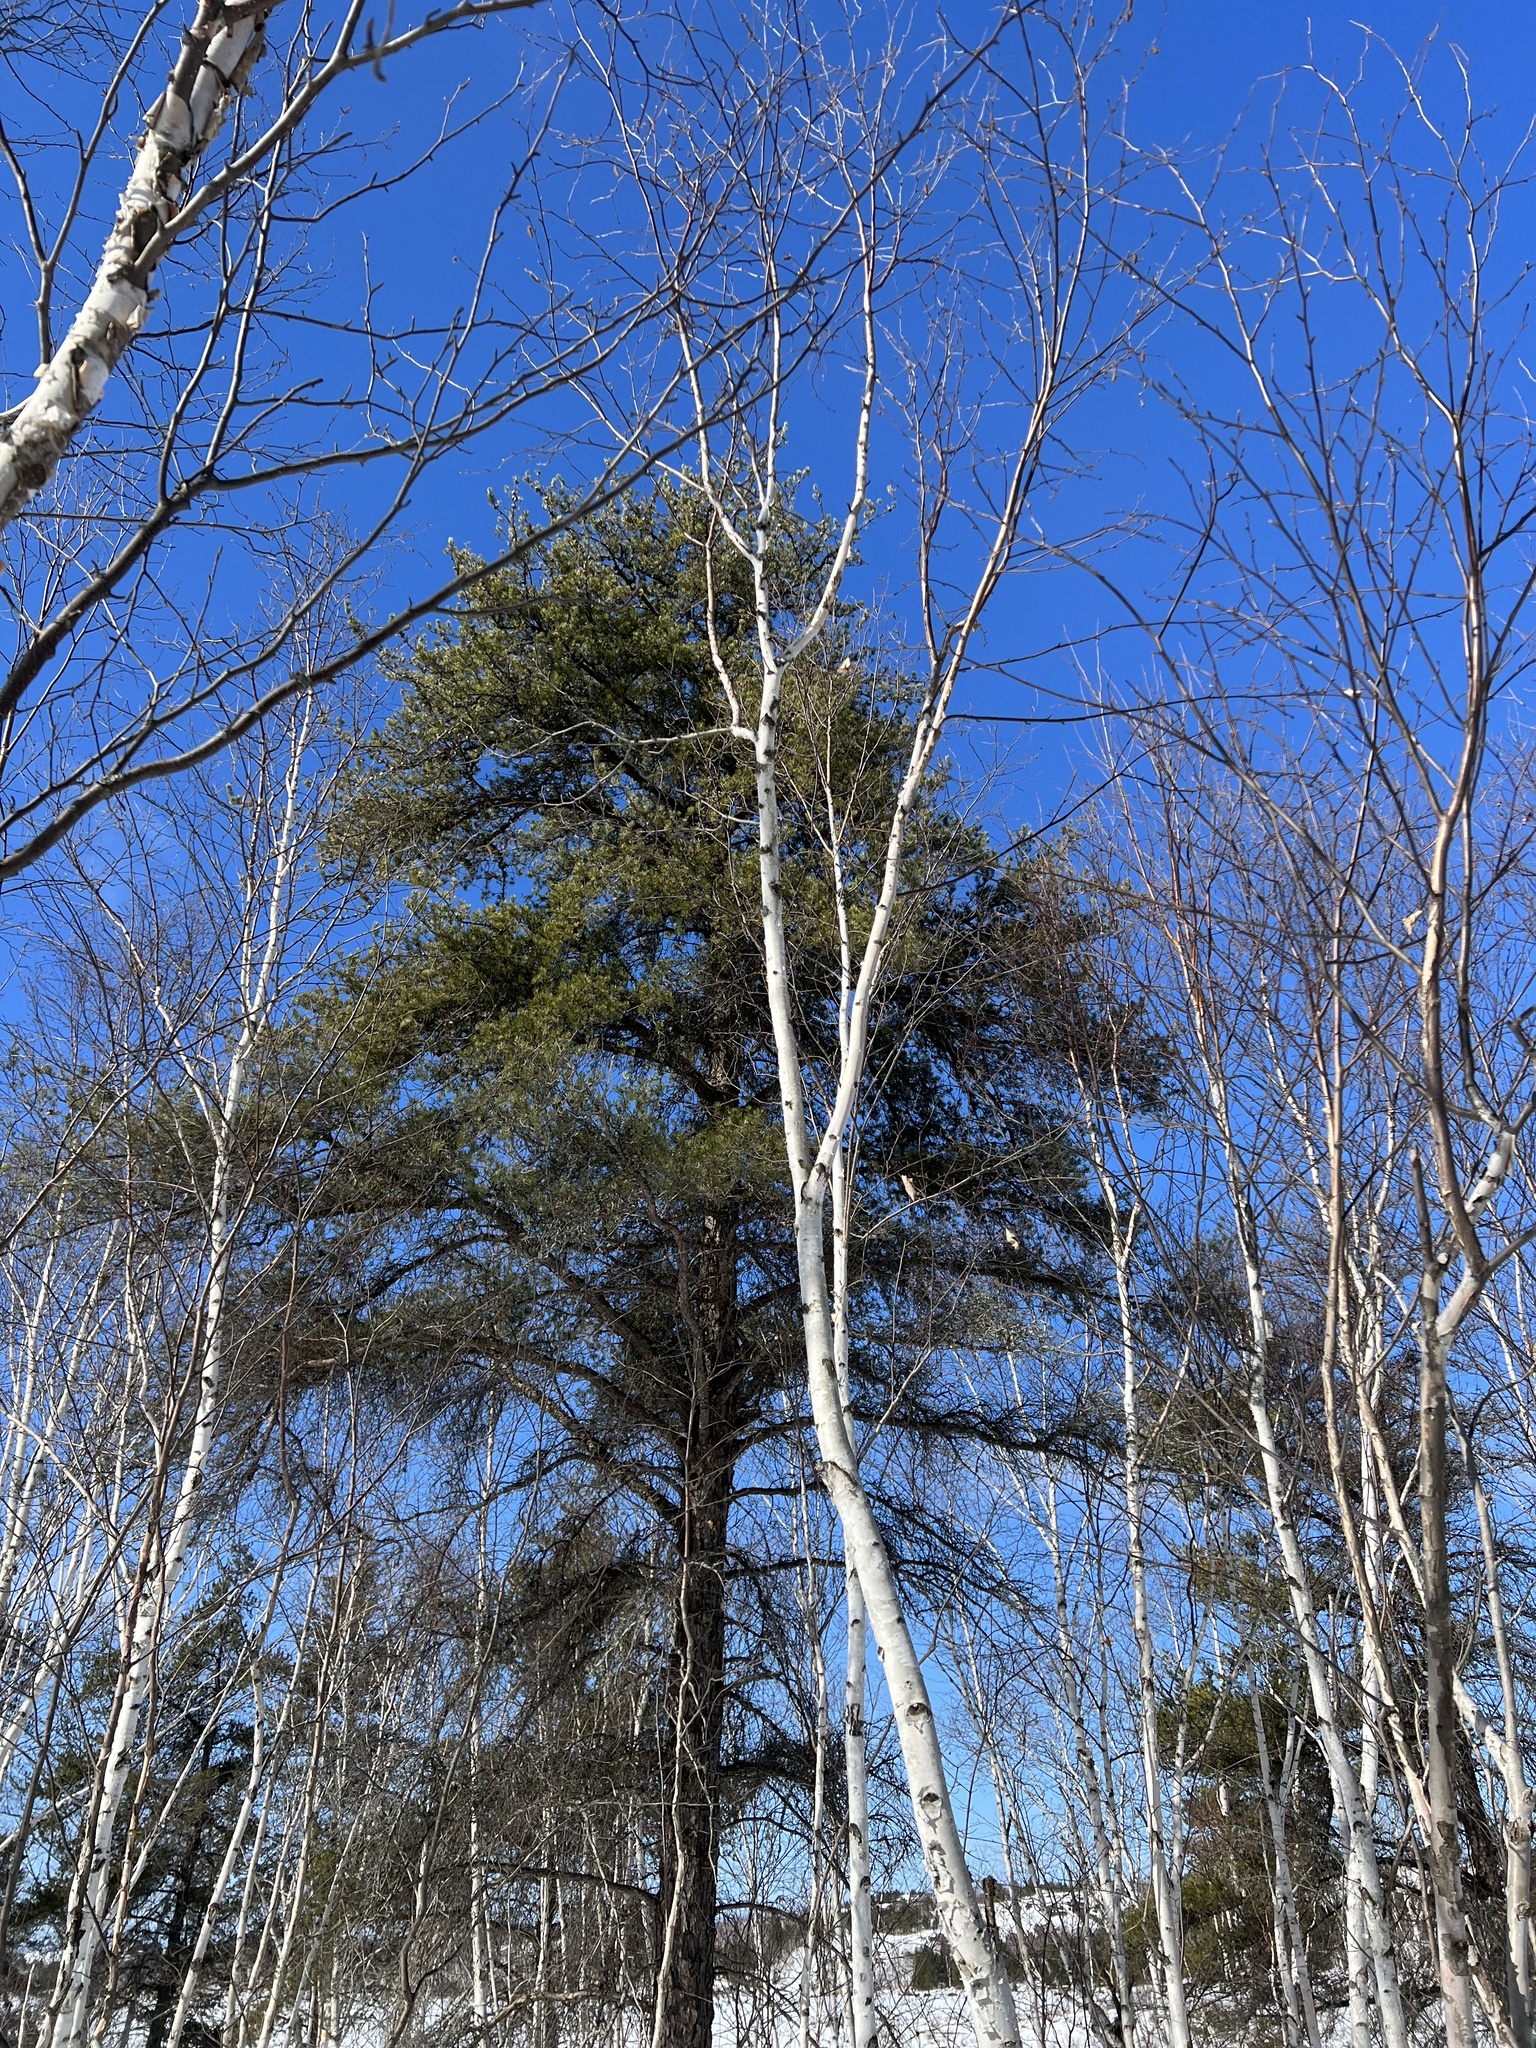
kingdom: Plantae
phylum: Tracheophyta
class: Pinopsida
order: Pinales
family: Pinaceae
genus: Pinus
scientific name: Pinus banksiana
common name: Jack pine
